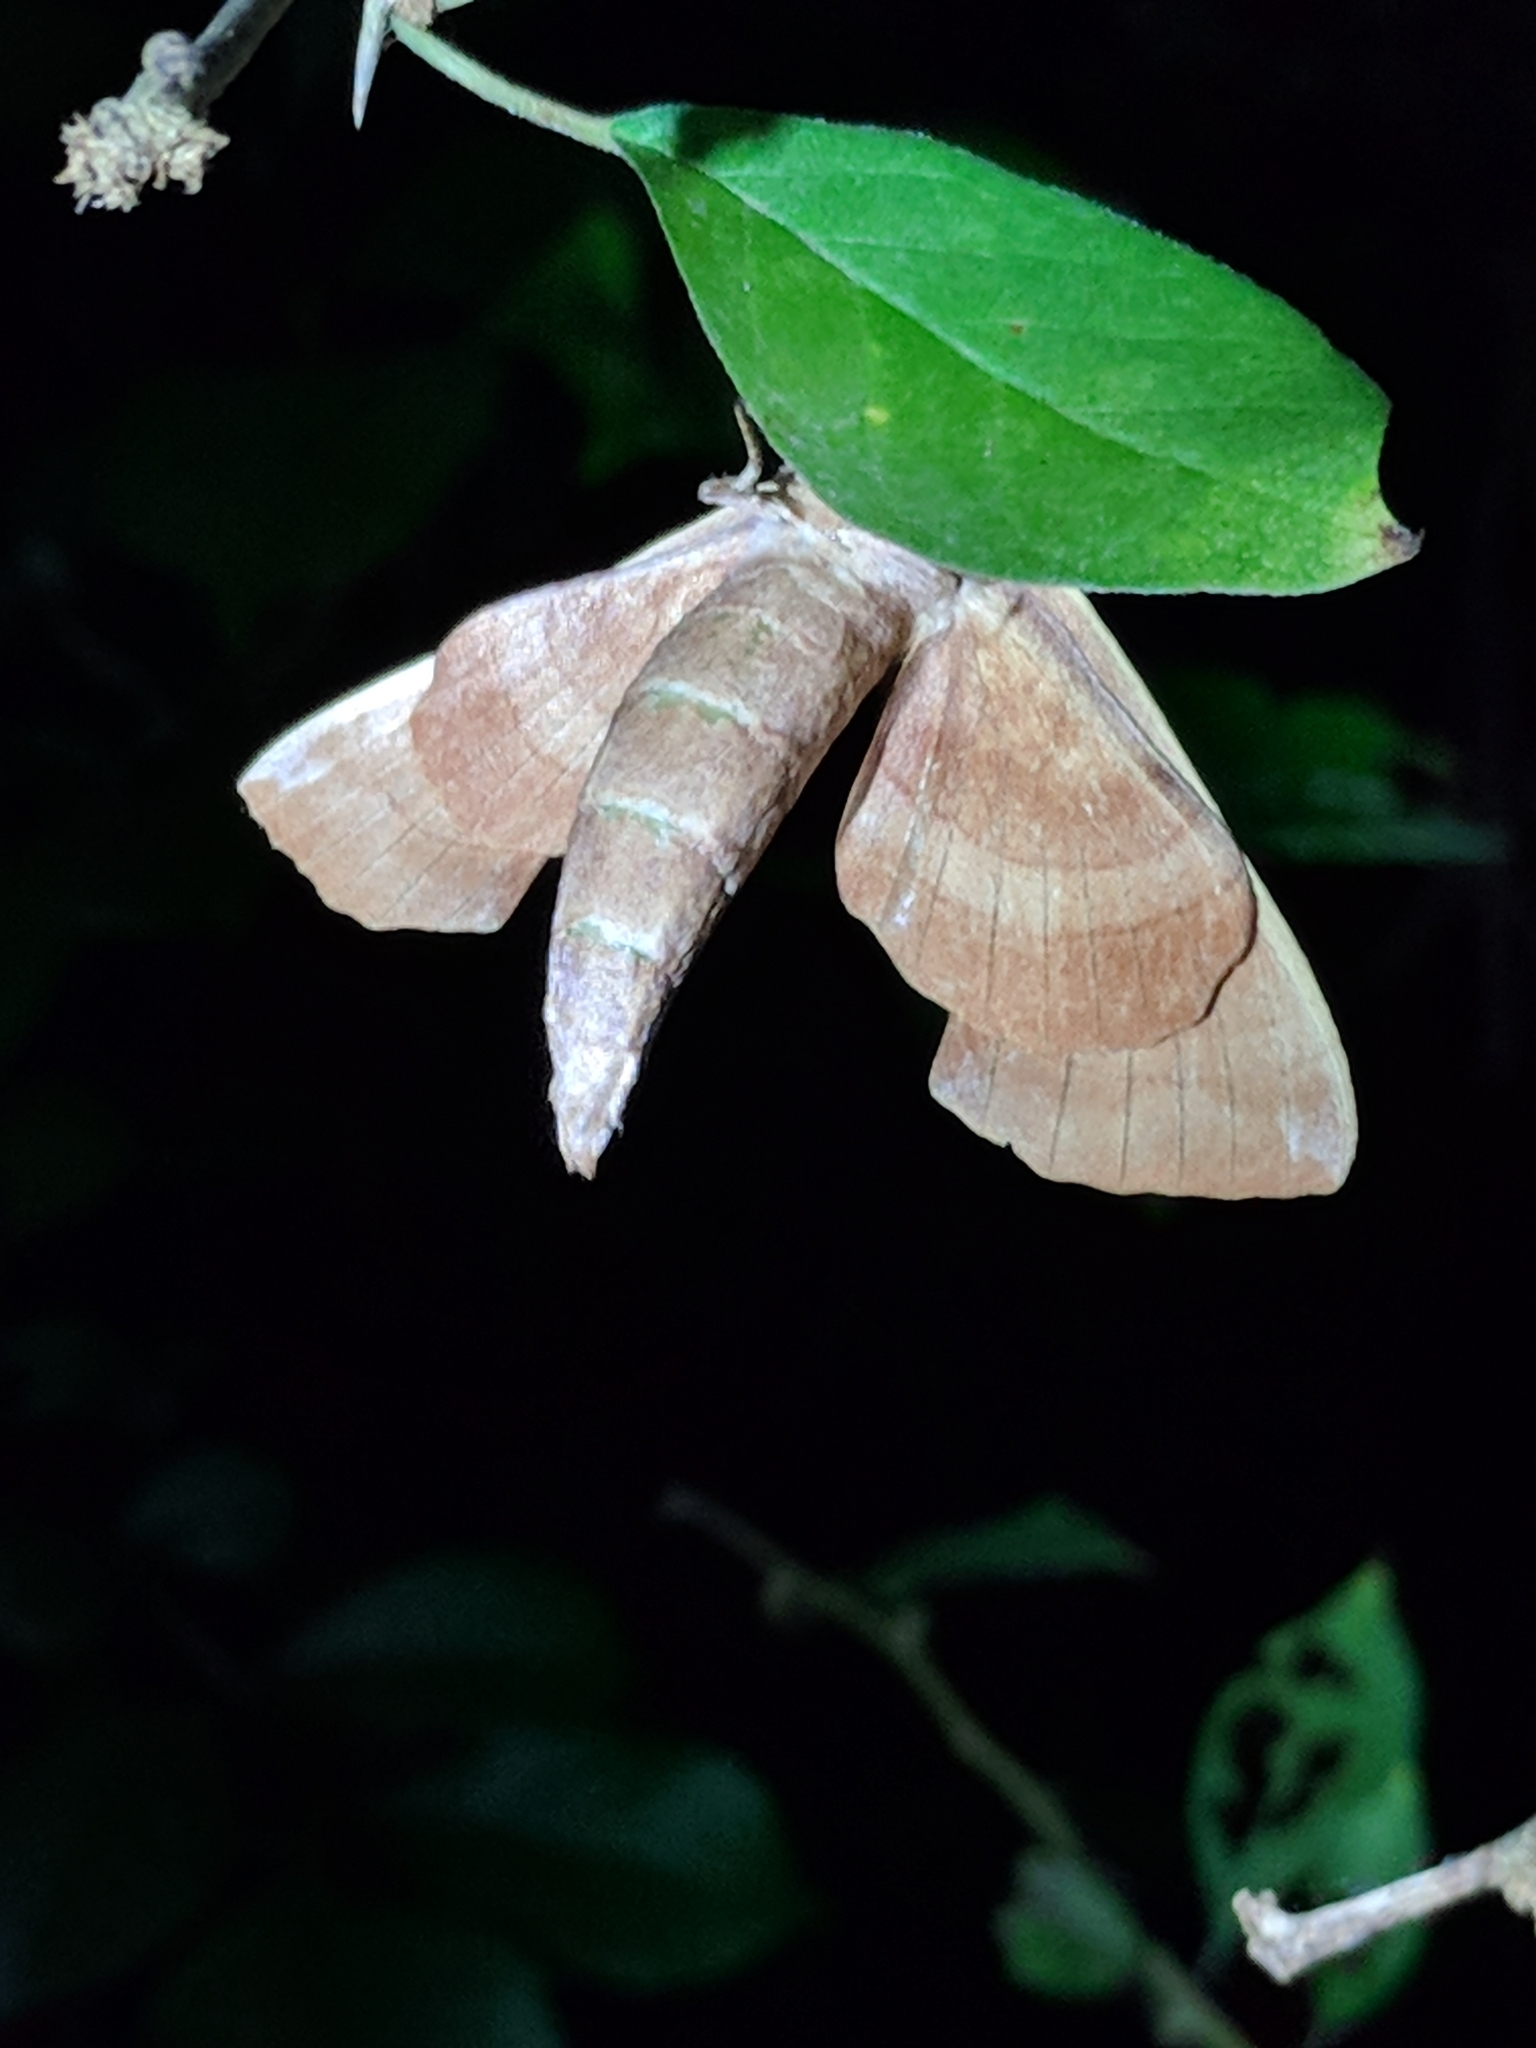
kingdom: Animalia
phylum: Arthropoda
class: Insecta
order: Lepidoptera
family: Sphingidae
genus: Amorpha
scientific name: Amorpha juglandis
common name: Walnut sphinx
